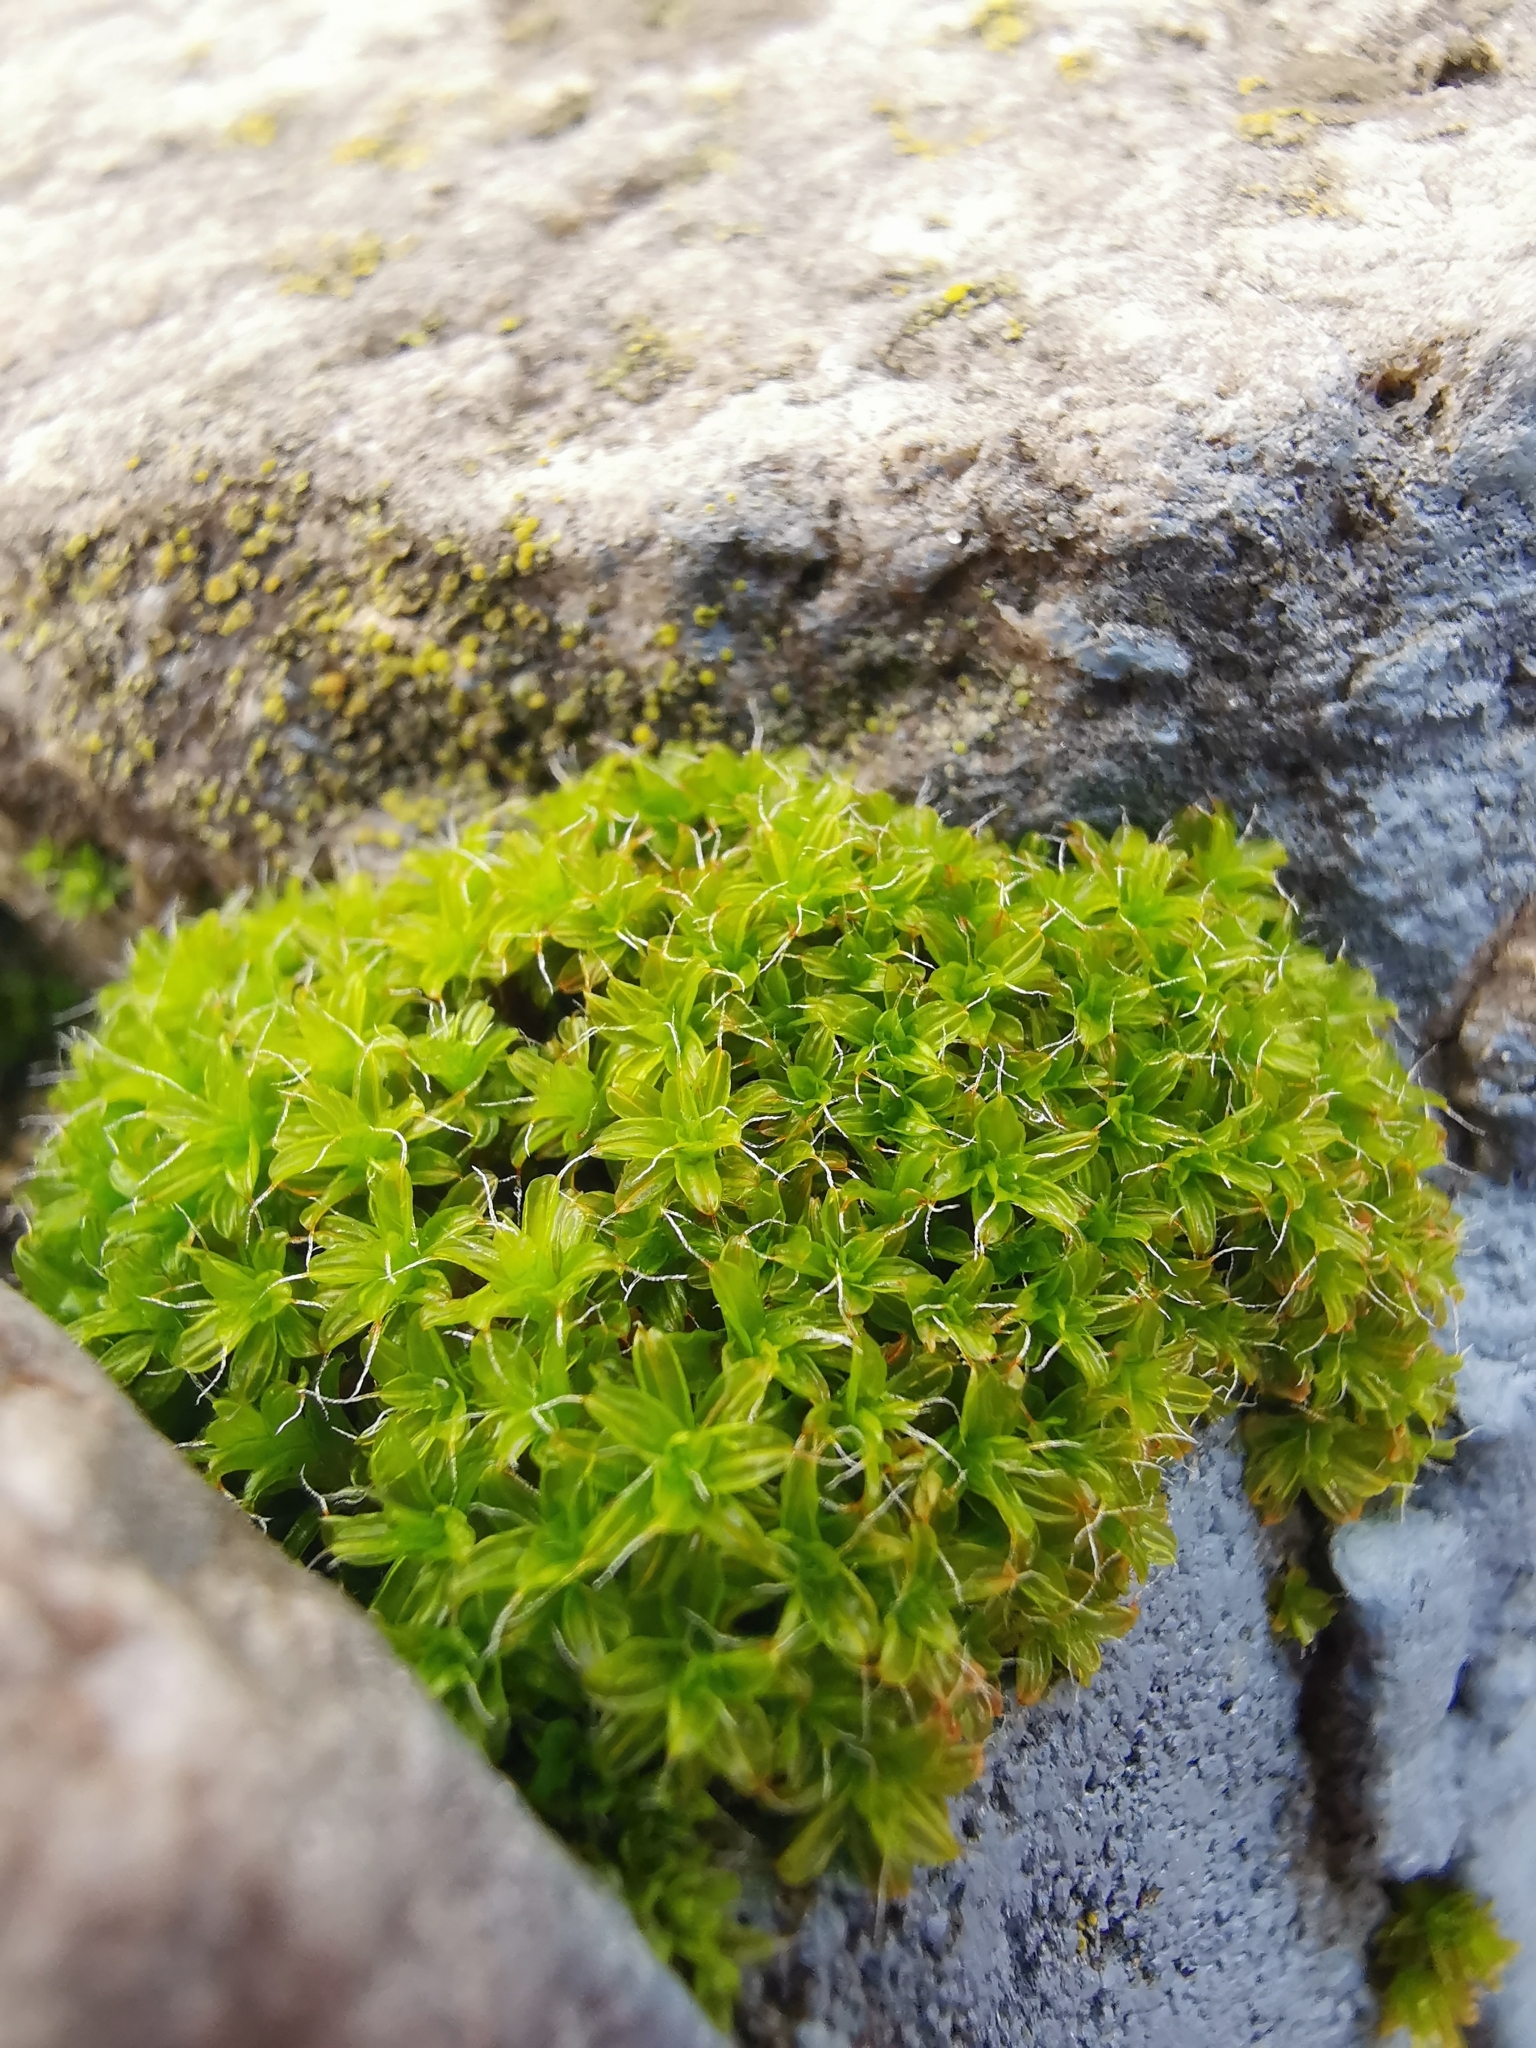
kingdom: Plantae
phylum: Bryophyta
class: Bryopsida
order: Pottiales
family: Pottiaceae
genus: Syntrichia
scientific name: Syntrichia ruralis
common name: Sidewalk screw moss
